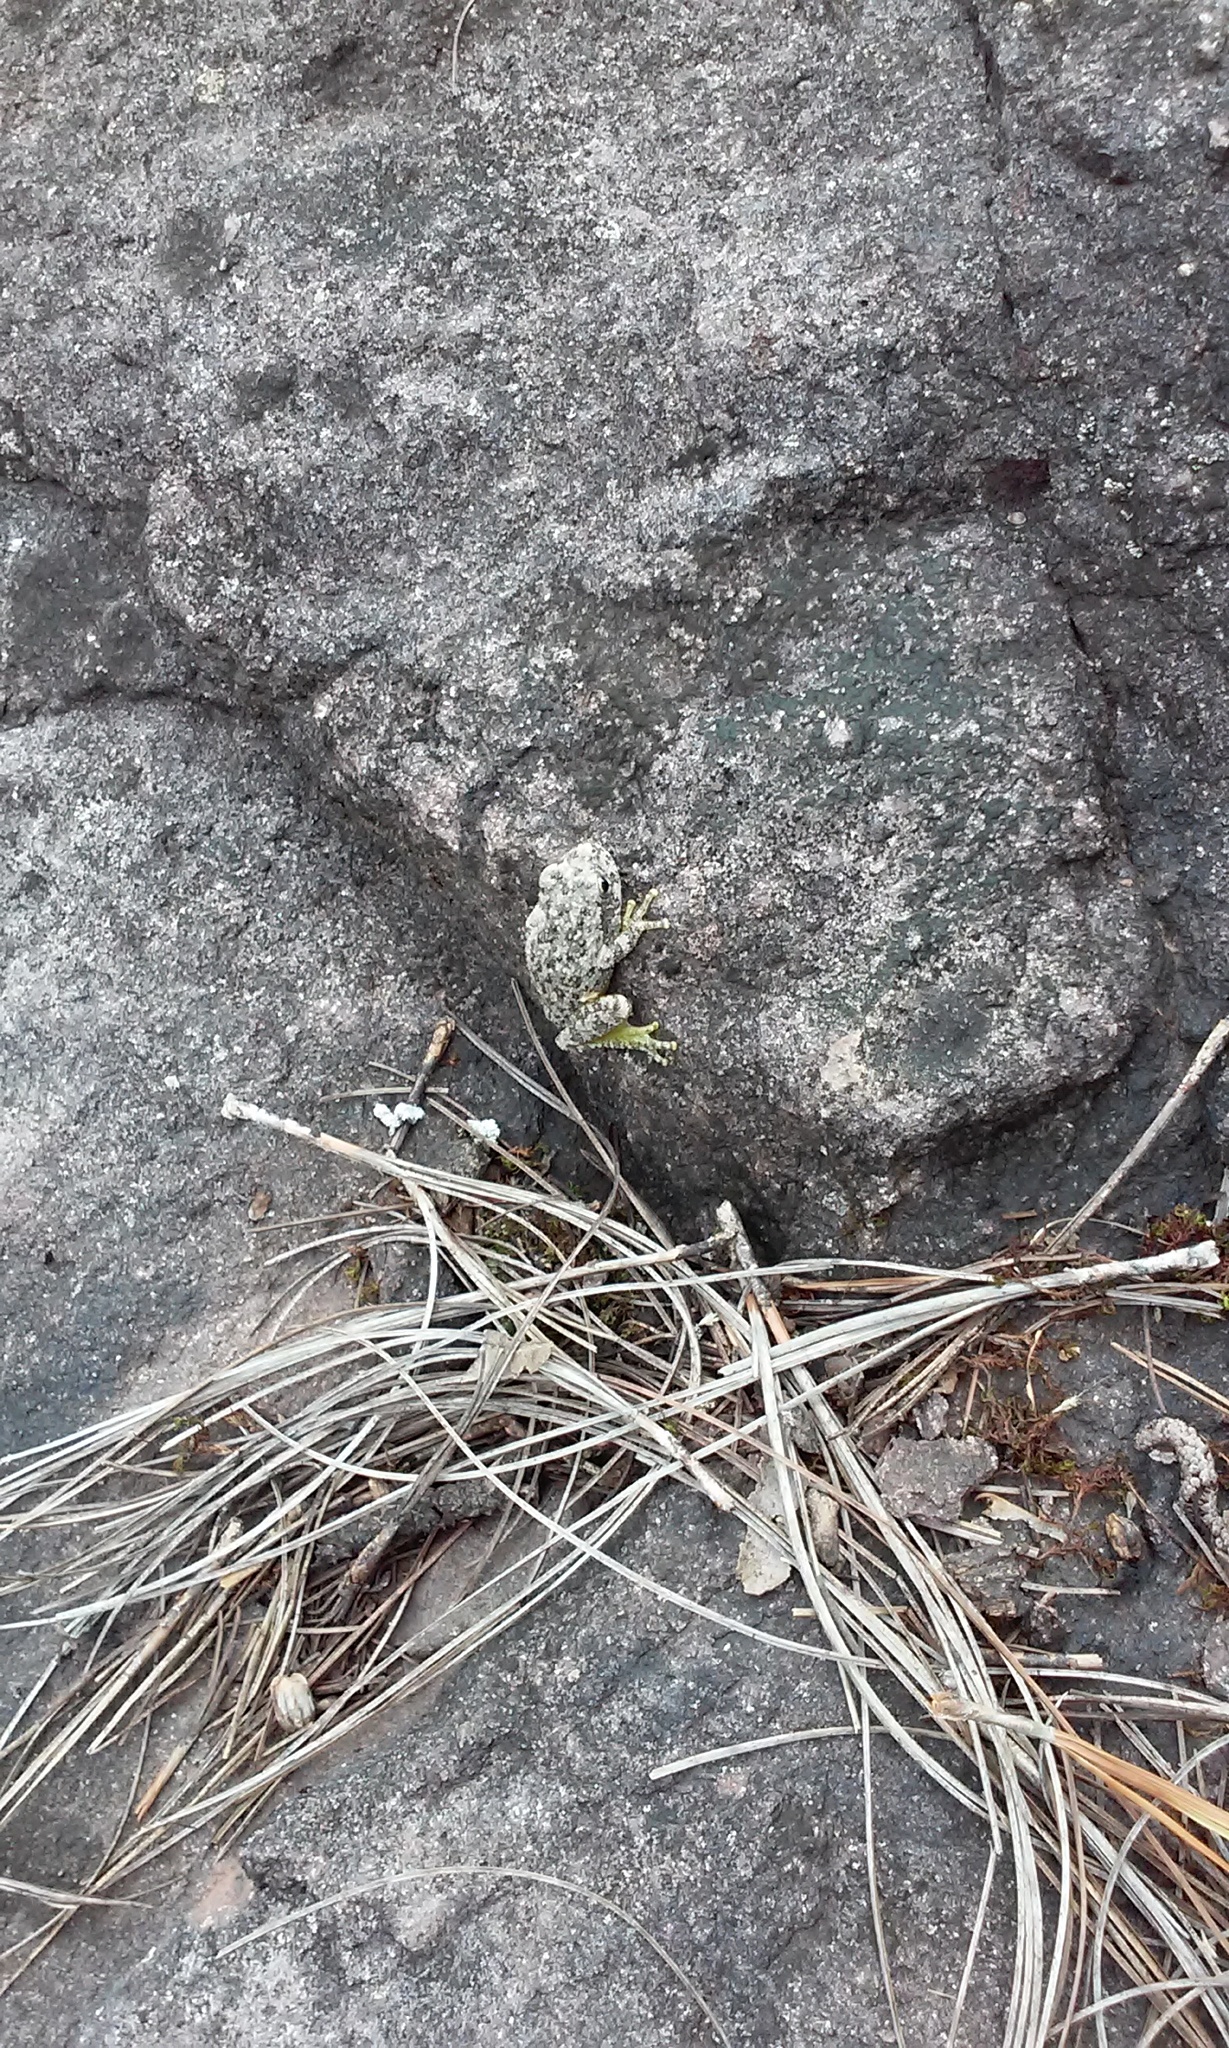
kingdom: Animalia
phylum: Chordata
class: Amphibia
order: Anura
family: Hylidae
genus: Dryophytes
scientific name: Dryophytes arenicolor
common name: Canyon treefrog
